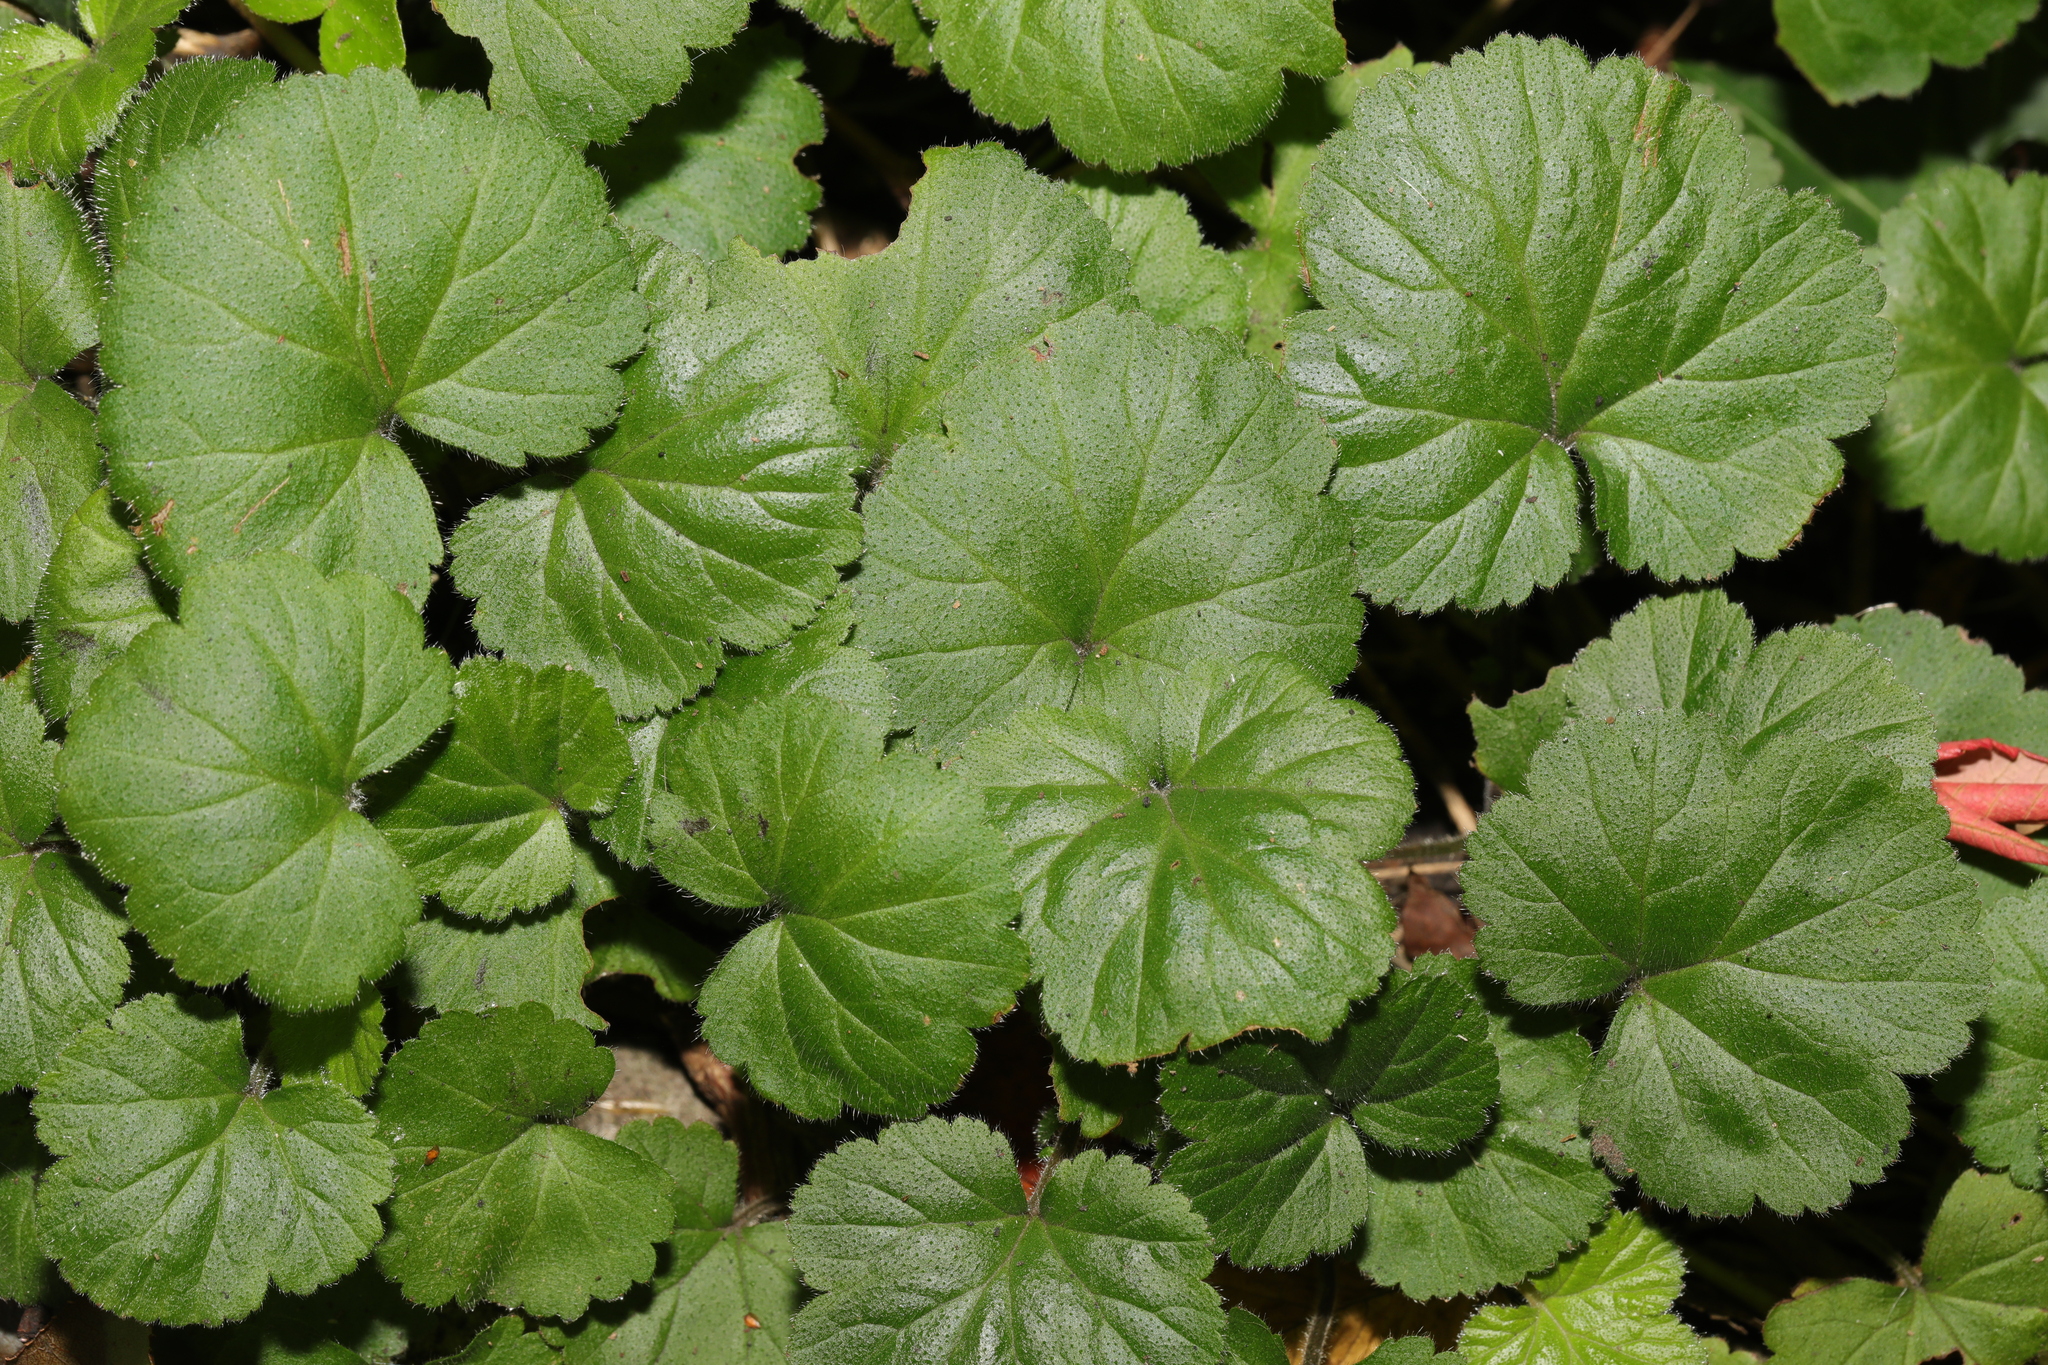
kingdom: Plantae
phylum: Tracheophyta
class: Magnoliopsida
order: Rosales
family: Rosaceae
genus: Geum
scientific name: Geum urbanum
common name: Wood avens
